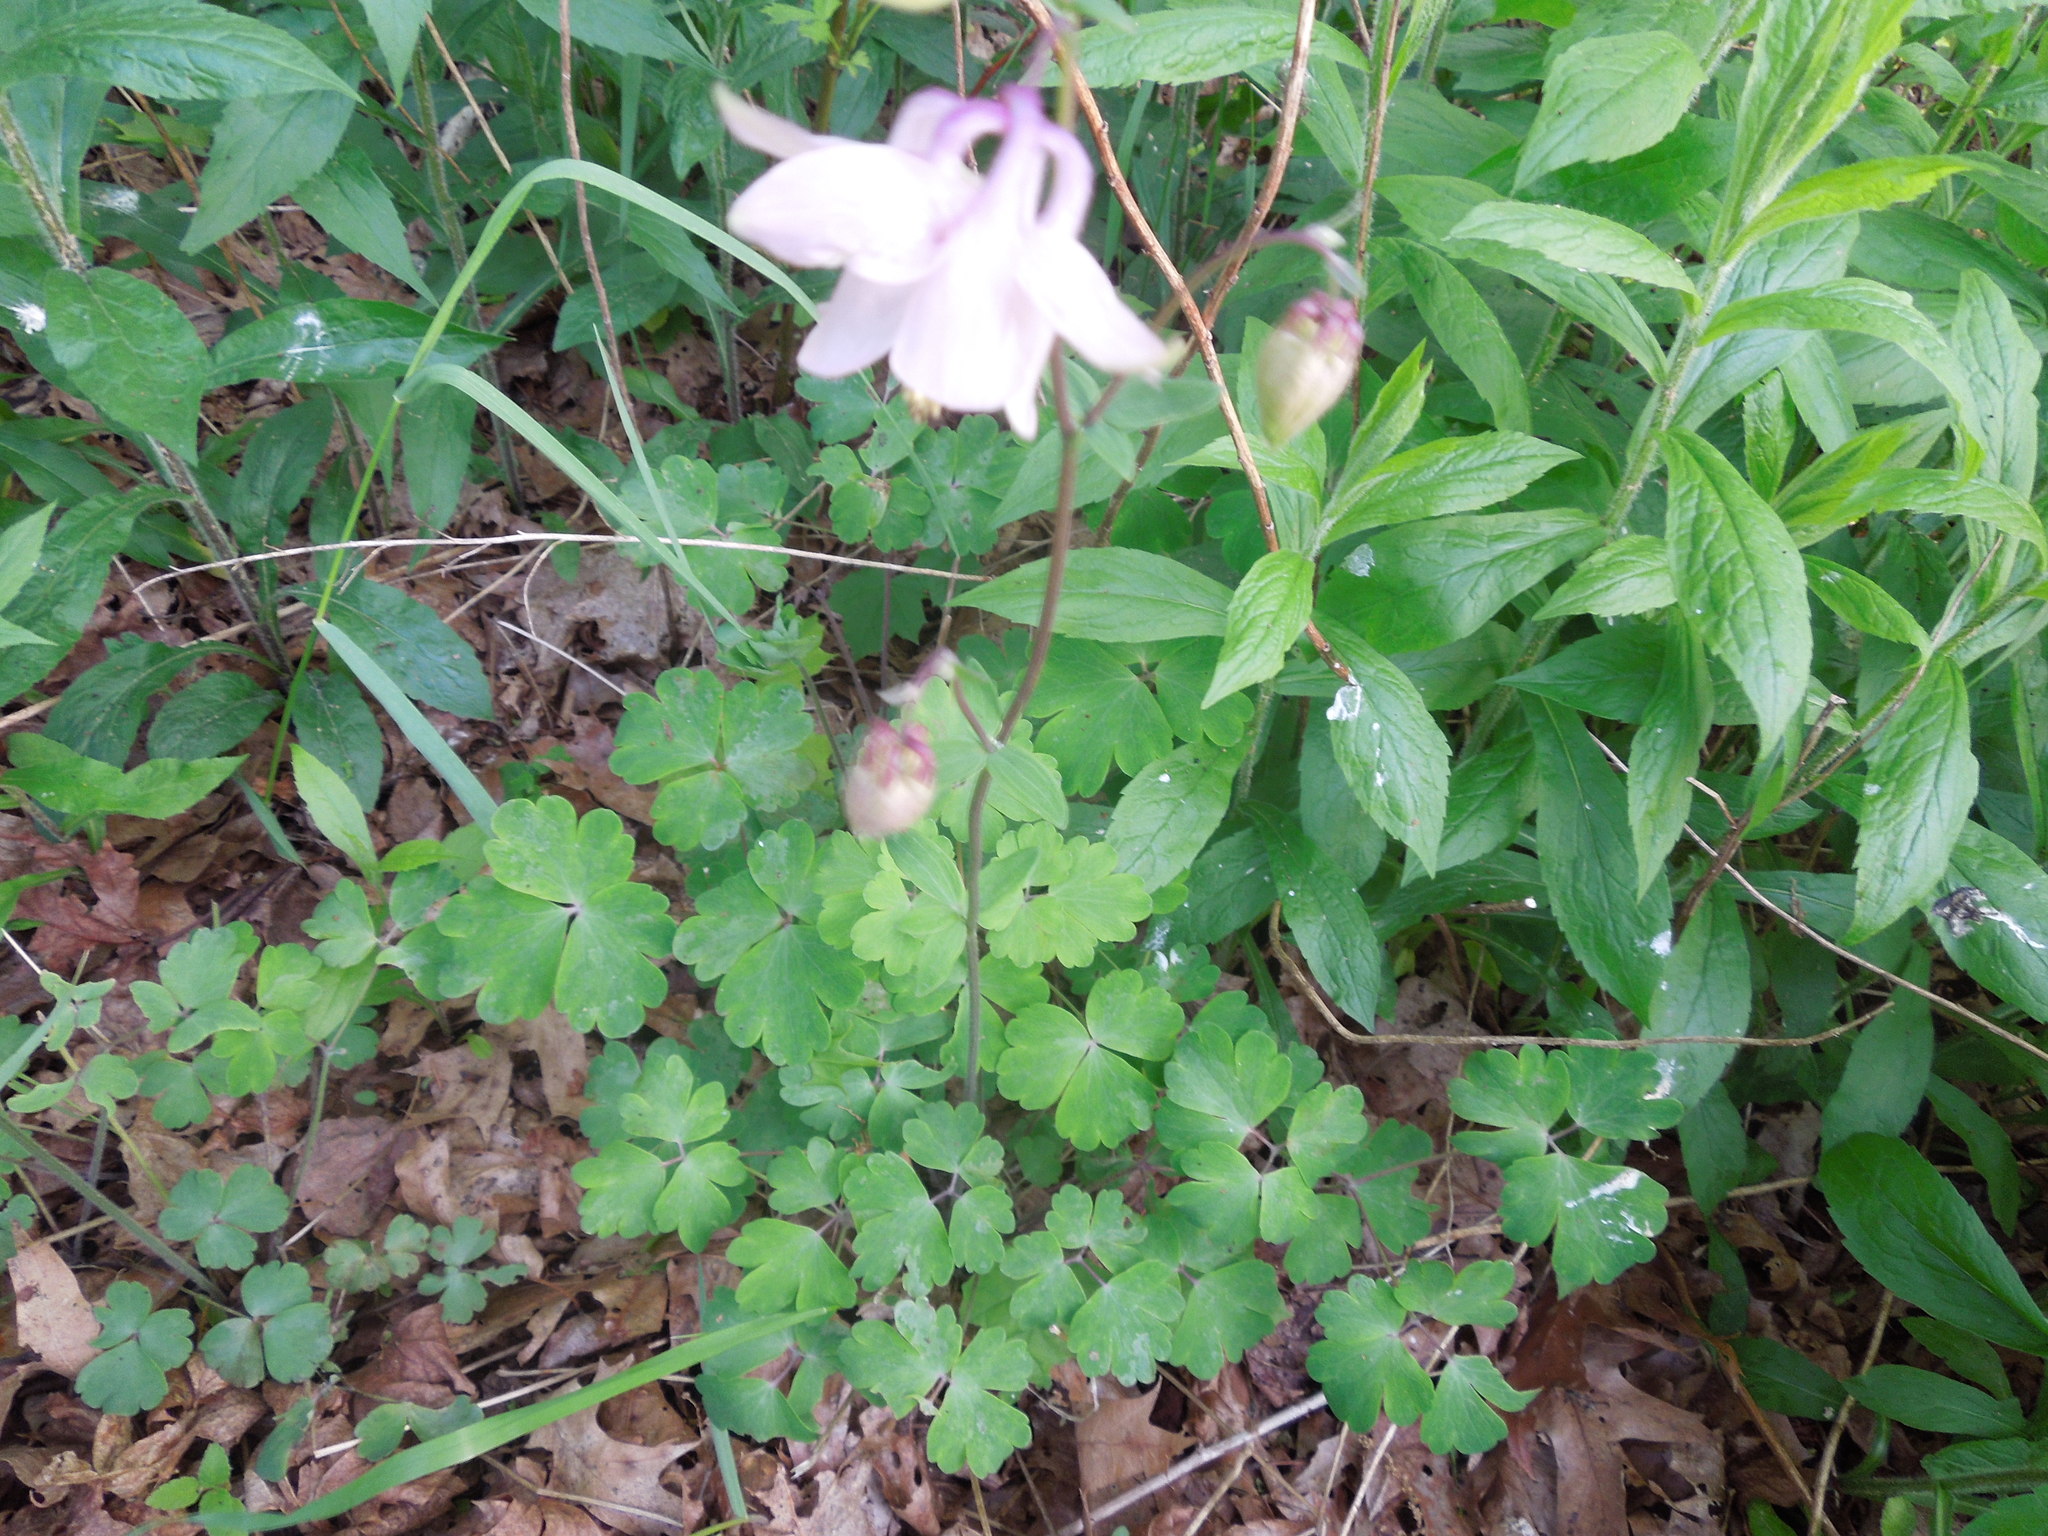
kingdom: Plantae
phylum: Tracheophyta
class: Magnoliopsida
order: Ranunculales
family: Ranunculaceae
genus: Aquilegia
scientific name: Aquilegia vulgaris
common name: Columbine
